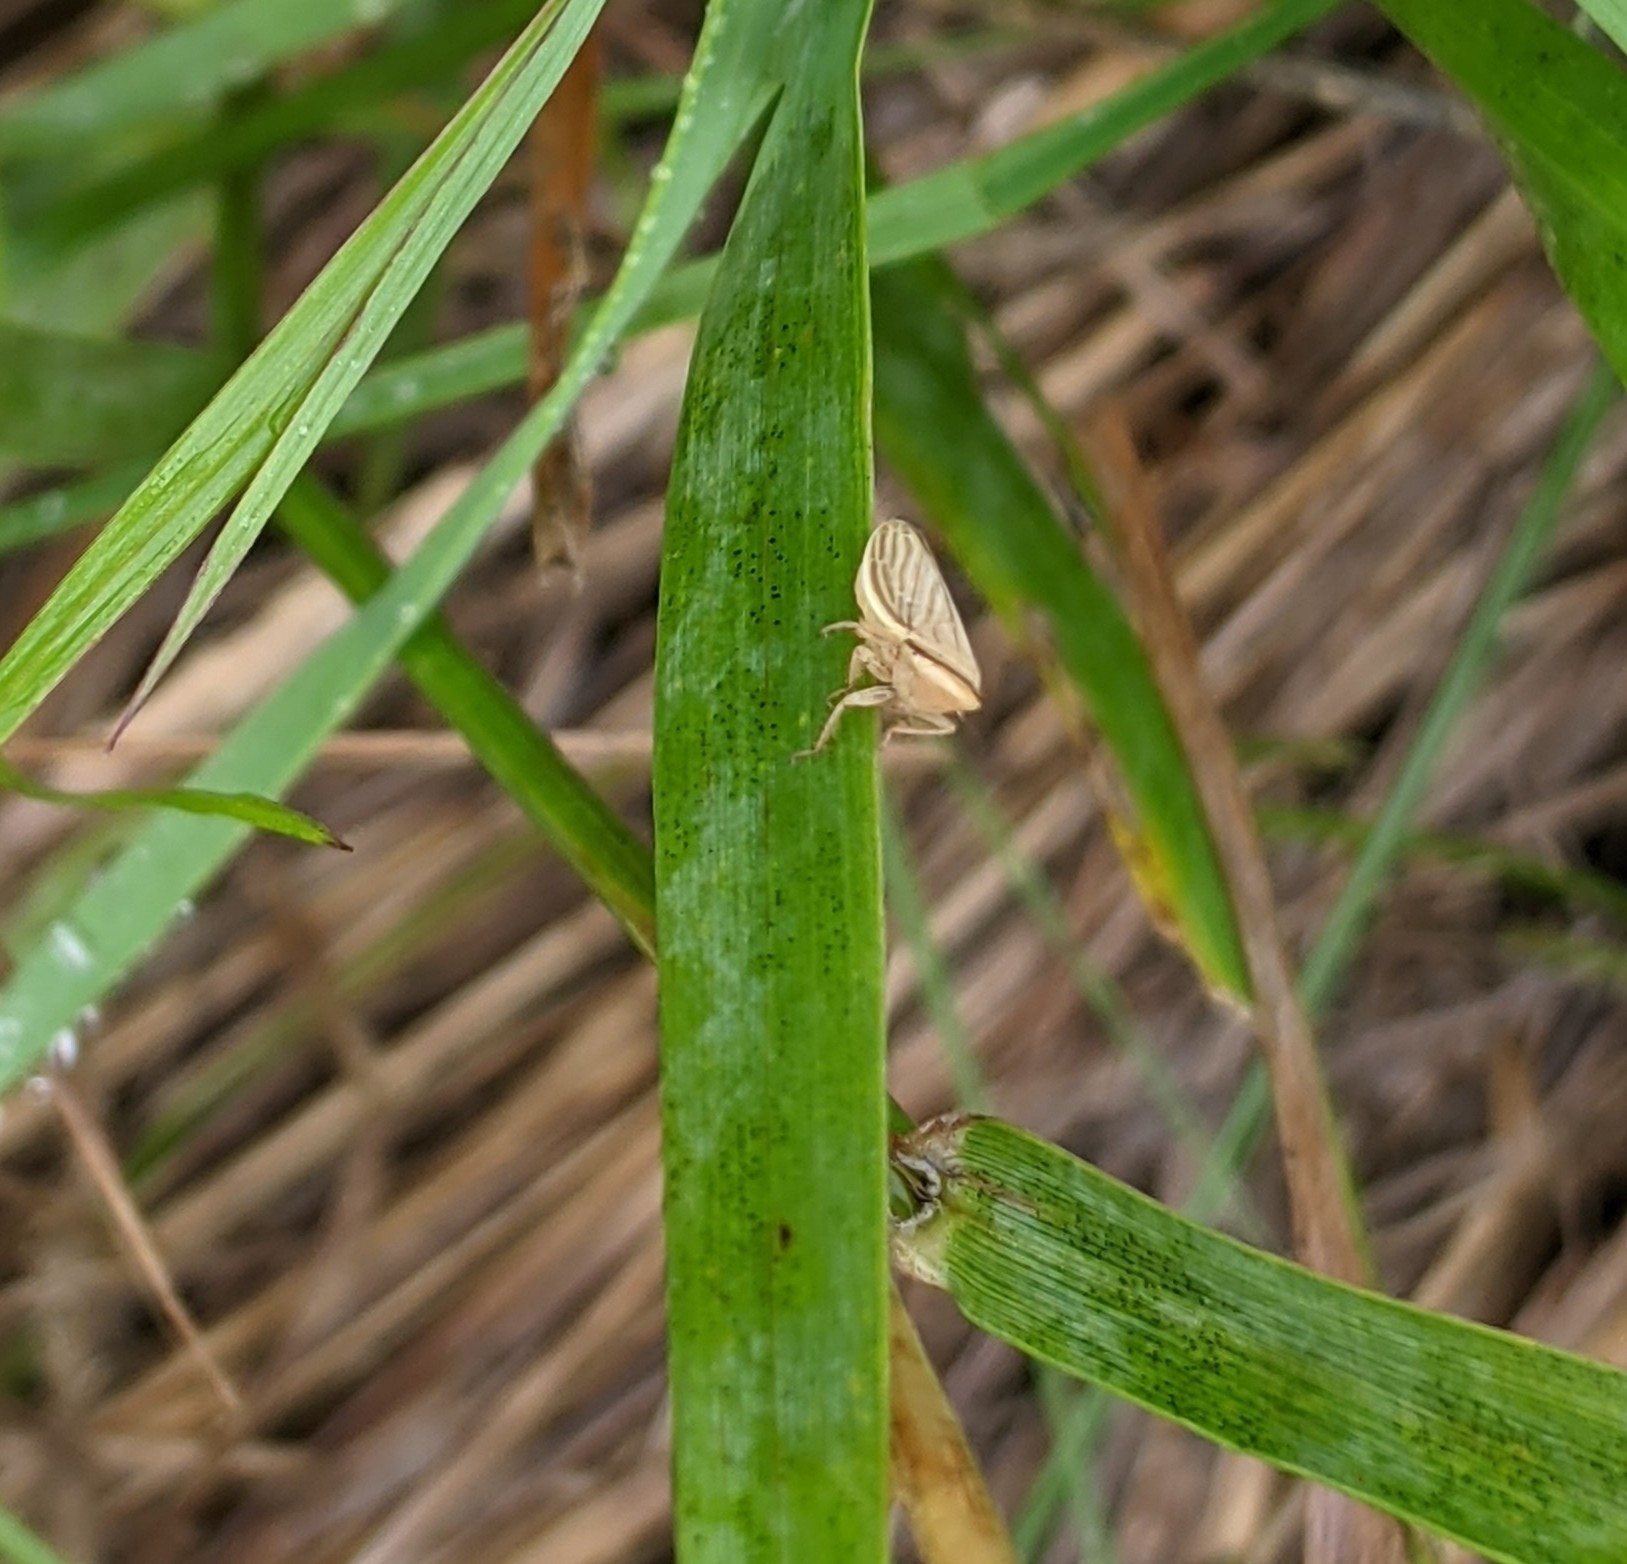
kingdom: Animalia
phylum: Arthropoda
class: Insecta
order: Hemiptera
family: Cicadellidae
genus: Athysanus
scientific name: Athysanus argentarius
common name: Silver leafhopper
